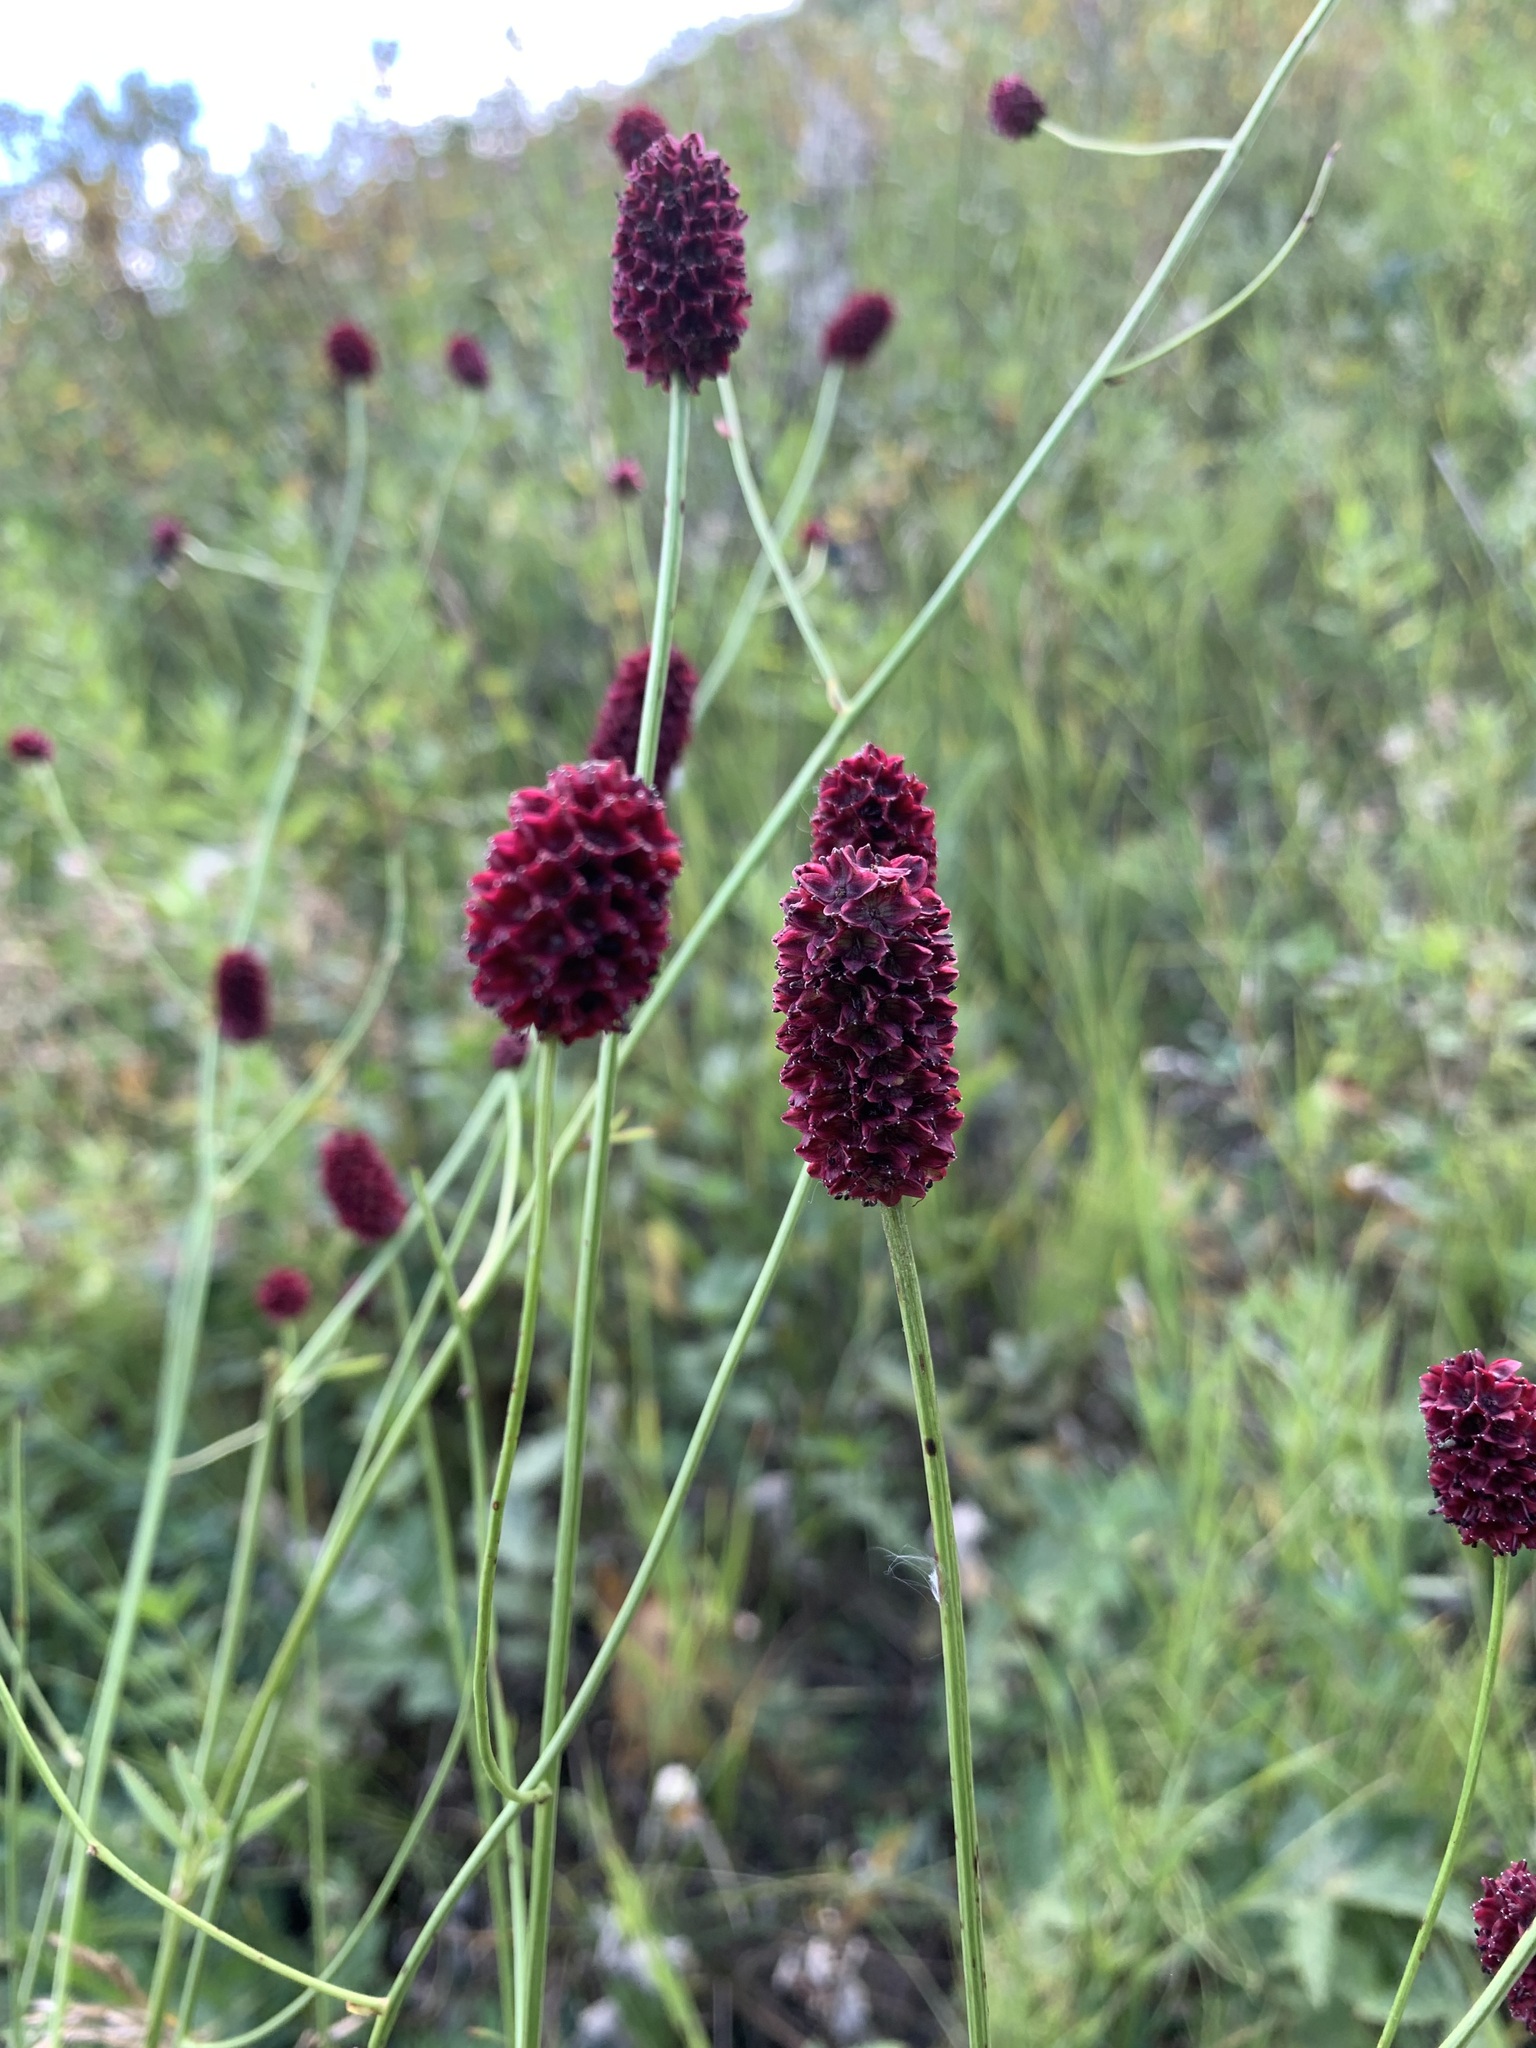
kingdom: Plantae
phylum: Tracheophyta
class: Magnoliopsida
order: Rosales
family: Rosaceae
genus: Sanguisorba
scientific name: Sanguisorba officinalis
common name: Great burnet
